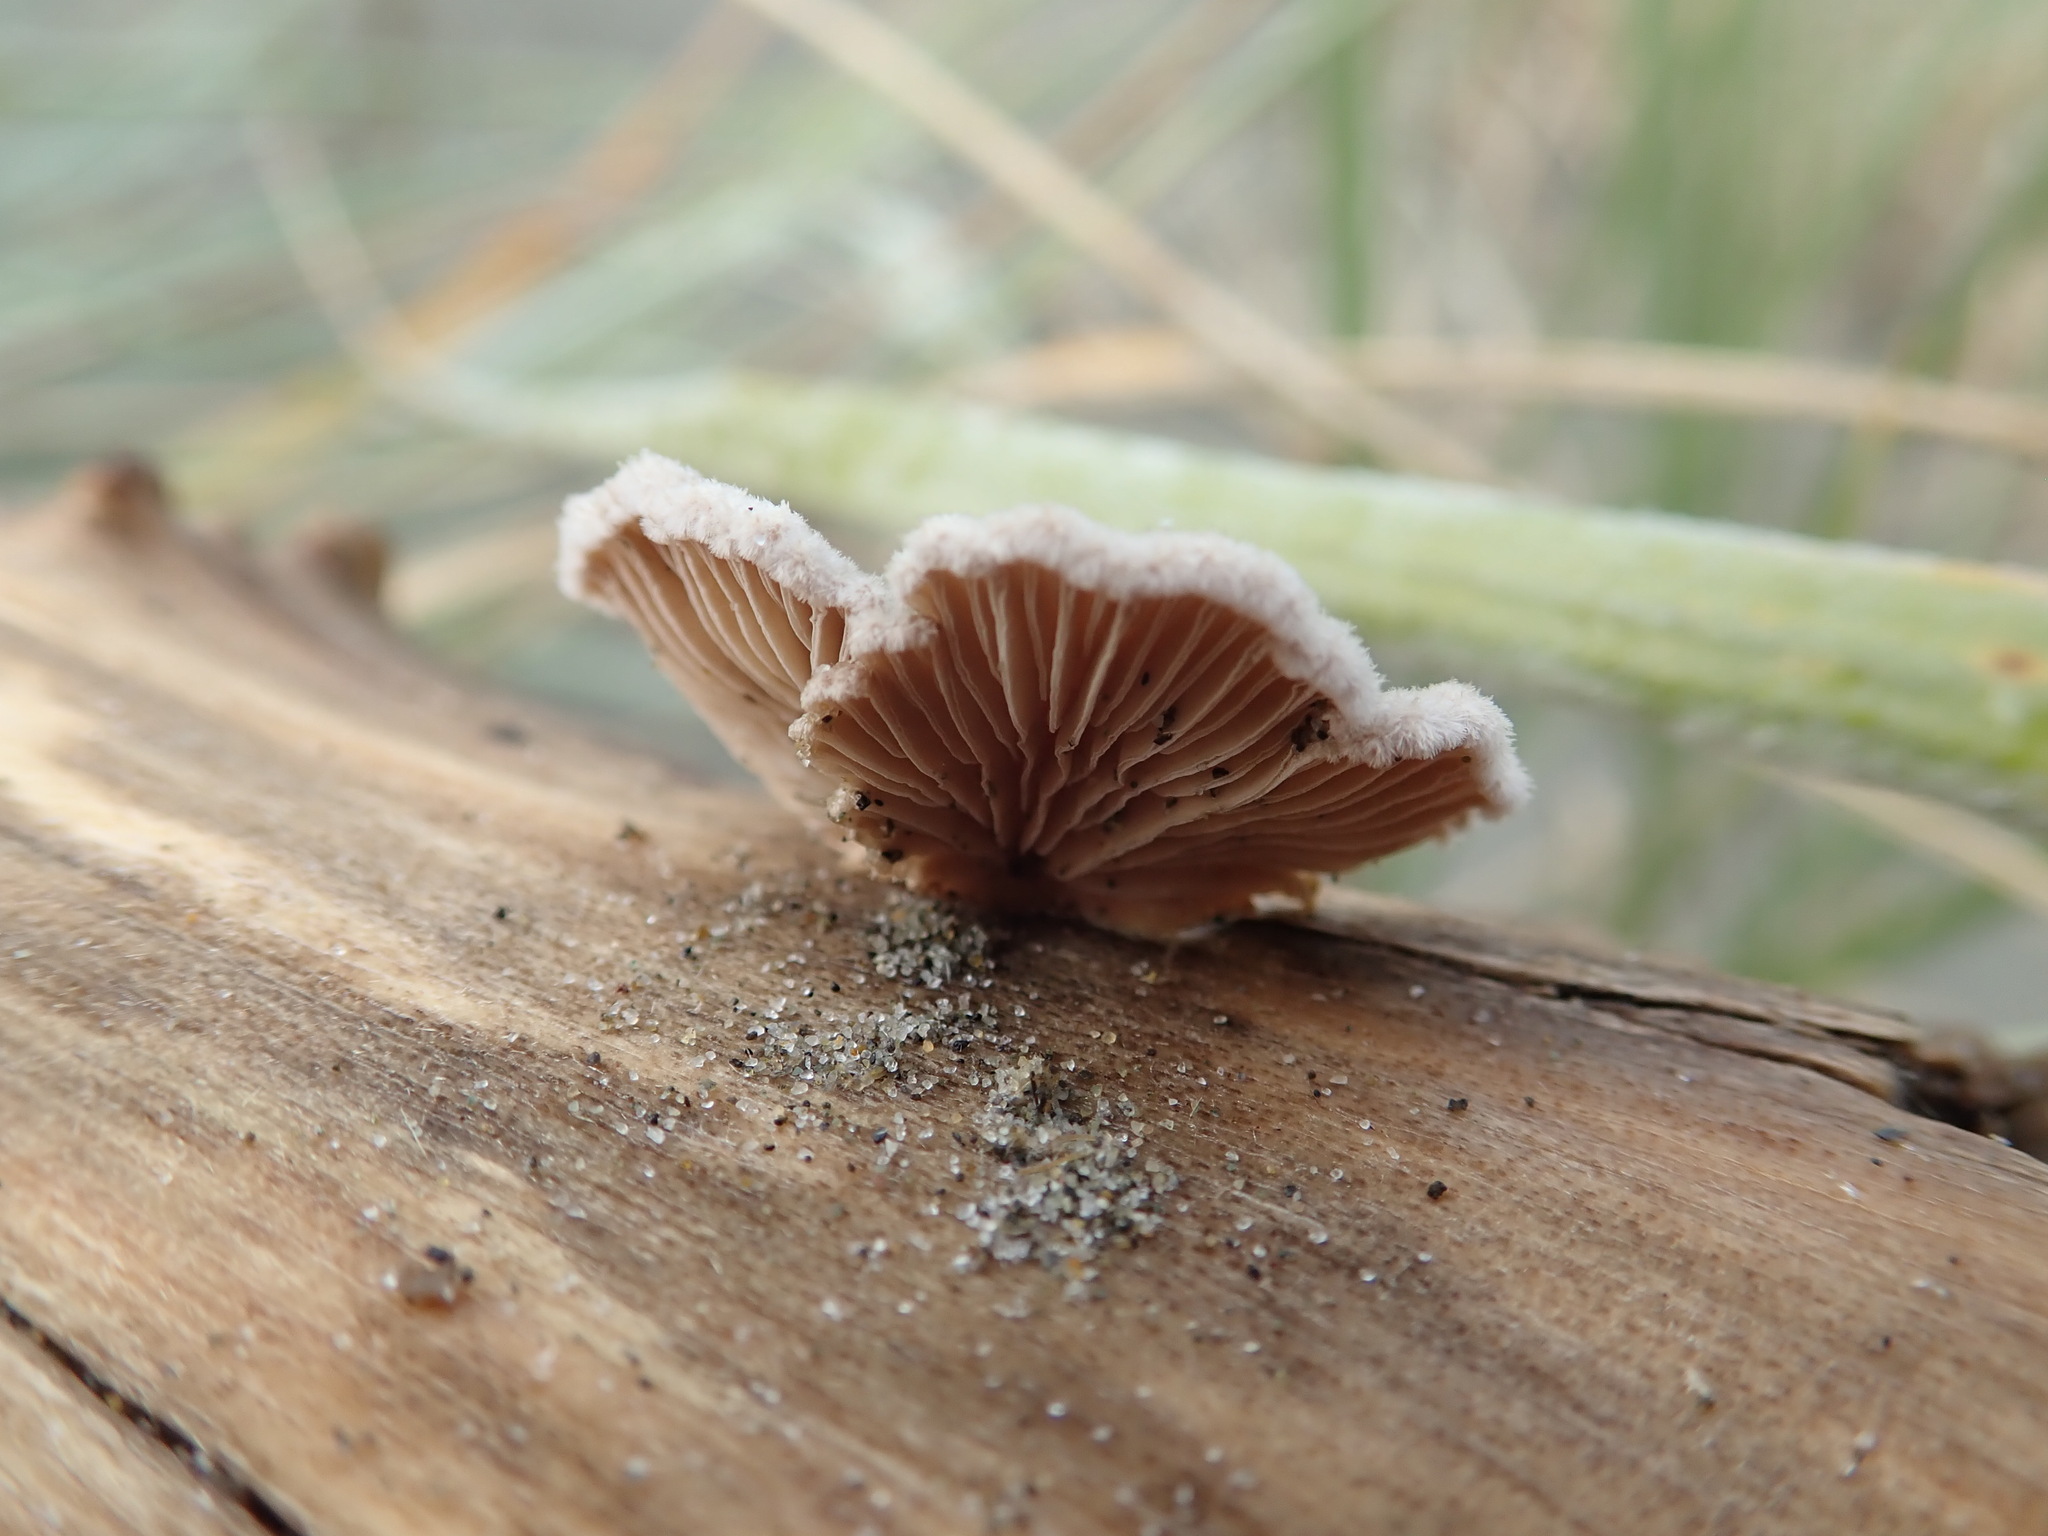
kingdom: Fungi
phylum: Basidiomycota
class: Agaricomycetes
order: Agaricales
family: Schizophyllaceae
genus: Schizophyllum
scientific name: Schizophyllum commune
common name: Common porecrust
